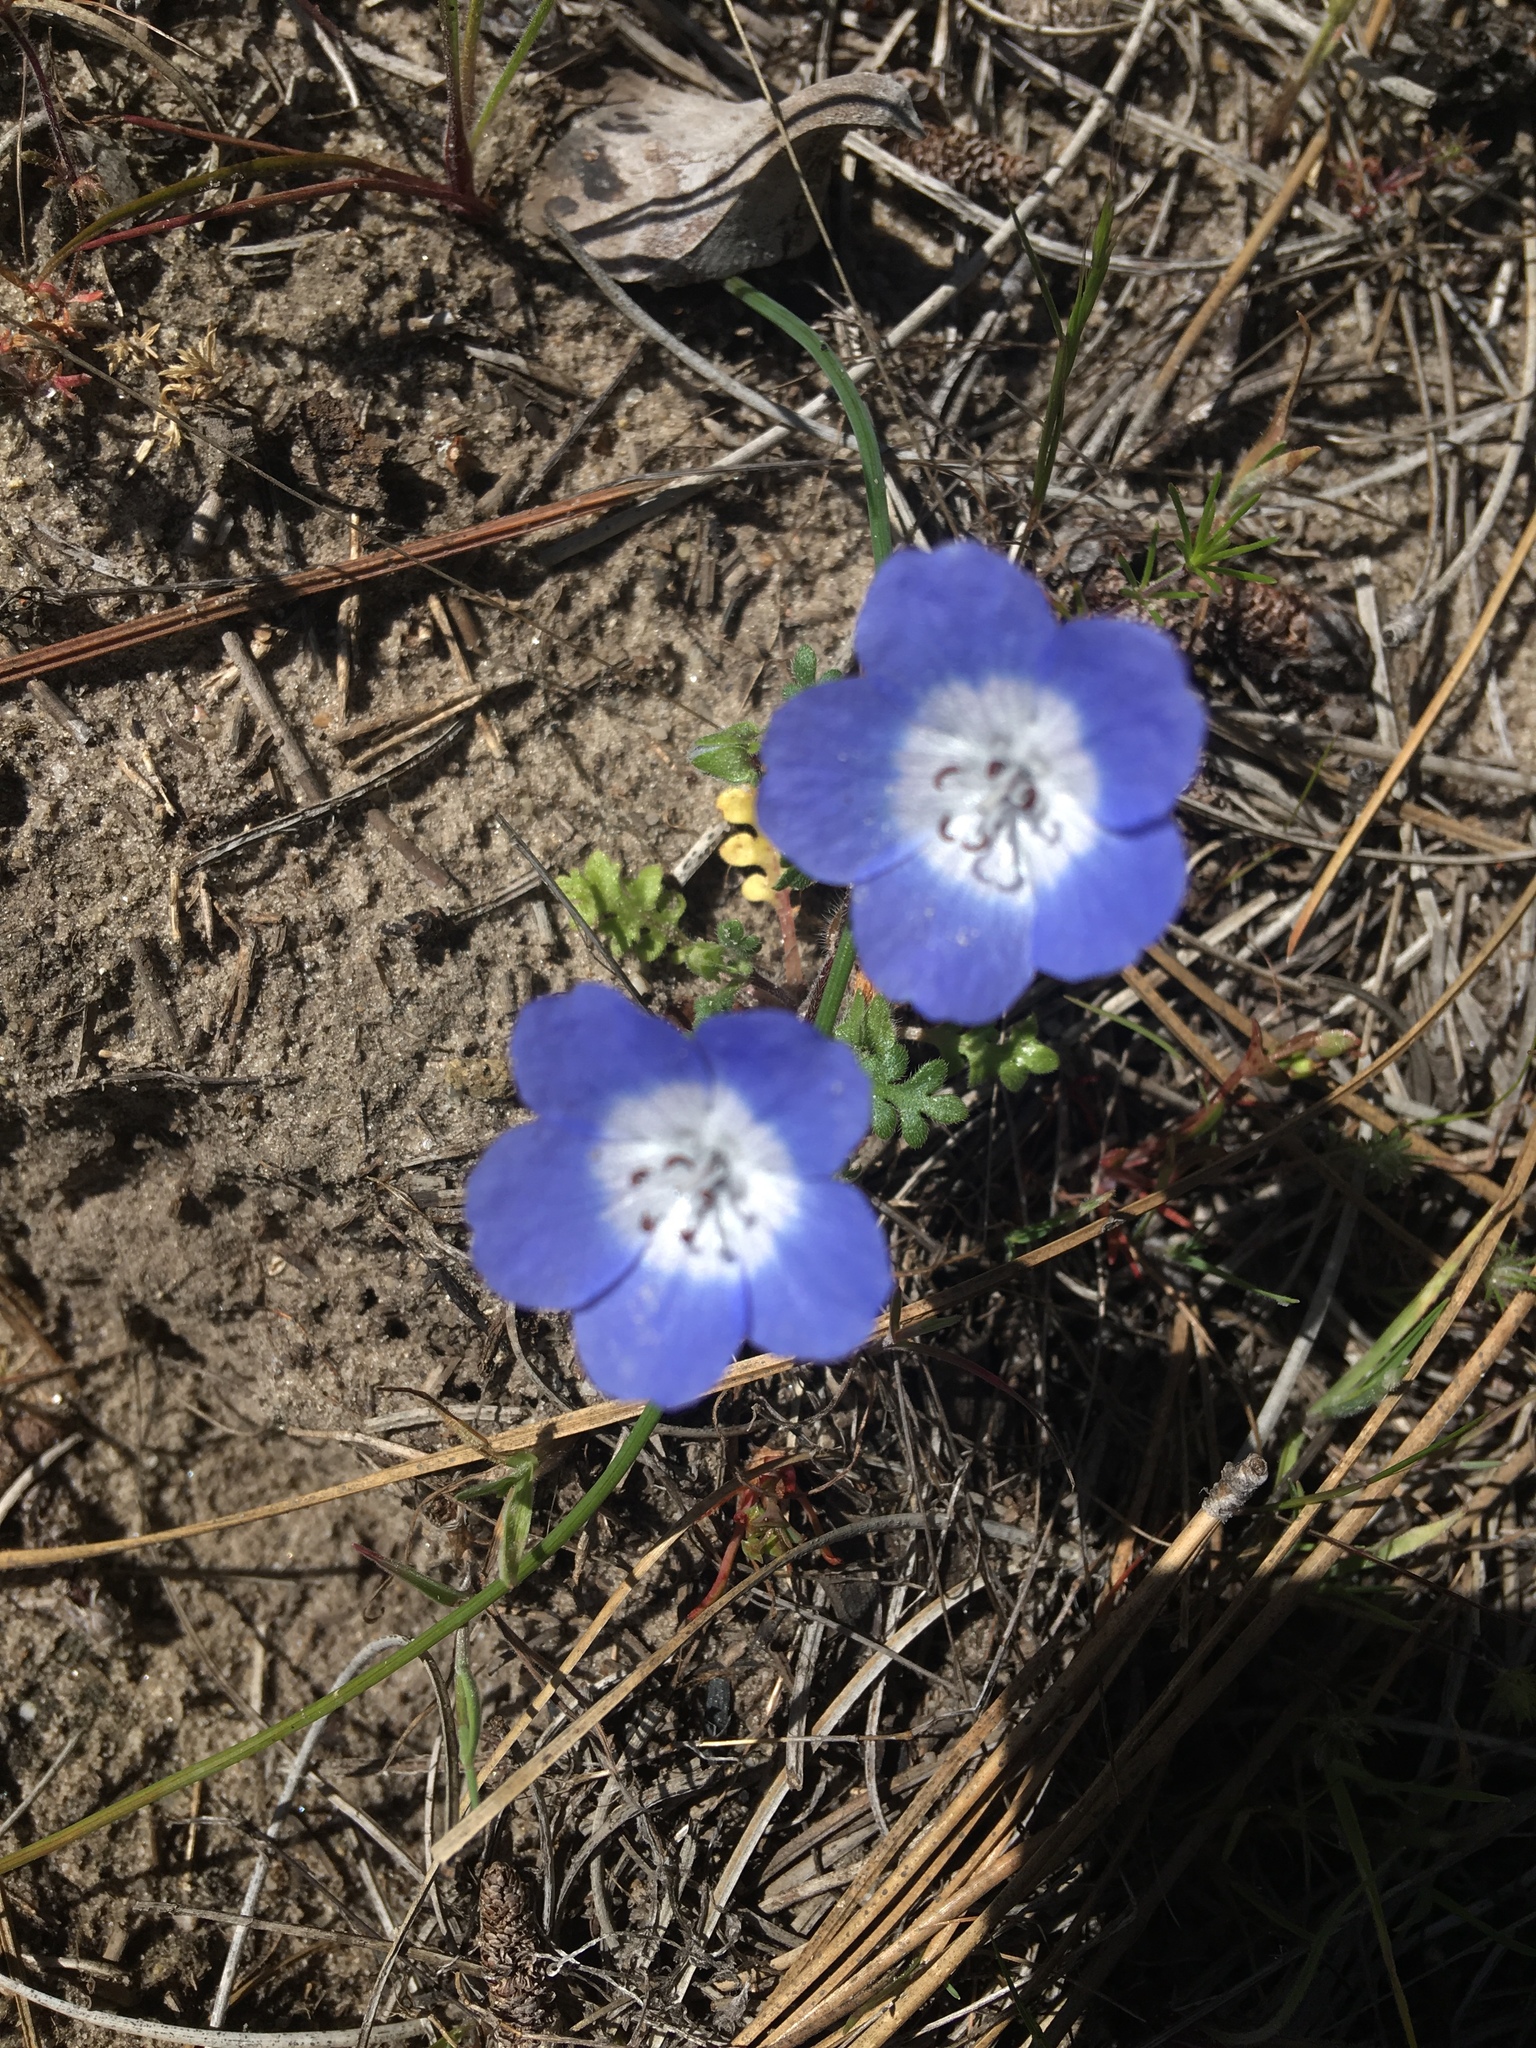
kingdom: Plantae
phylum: Tracheophyta
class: Magnoliopsida
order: Boraginales
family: Hydrophyllaceae
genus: Nemophila
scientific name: Nemophila menziesii
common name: Baby's-blue-eyes
